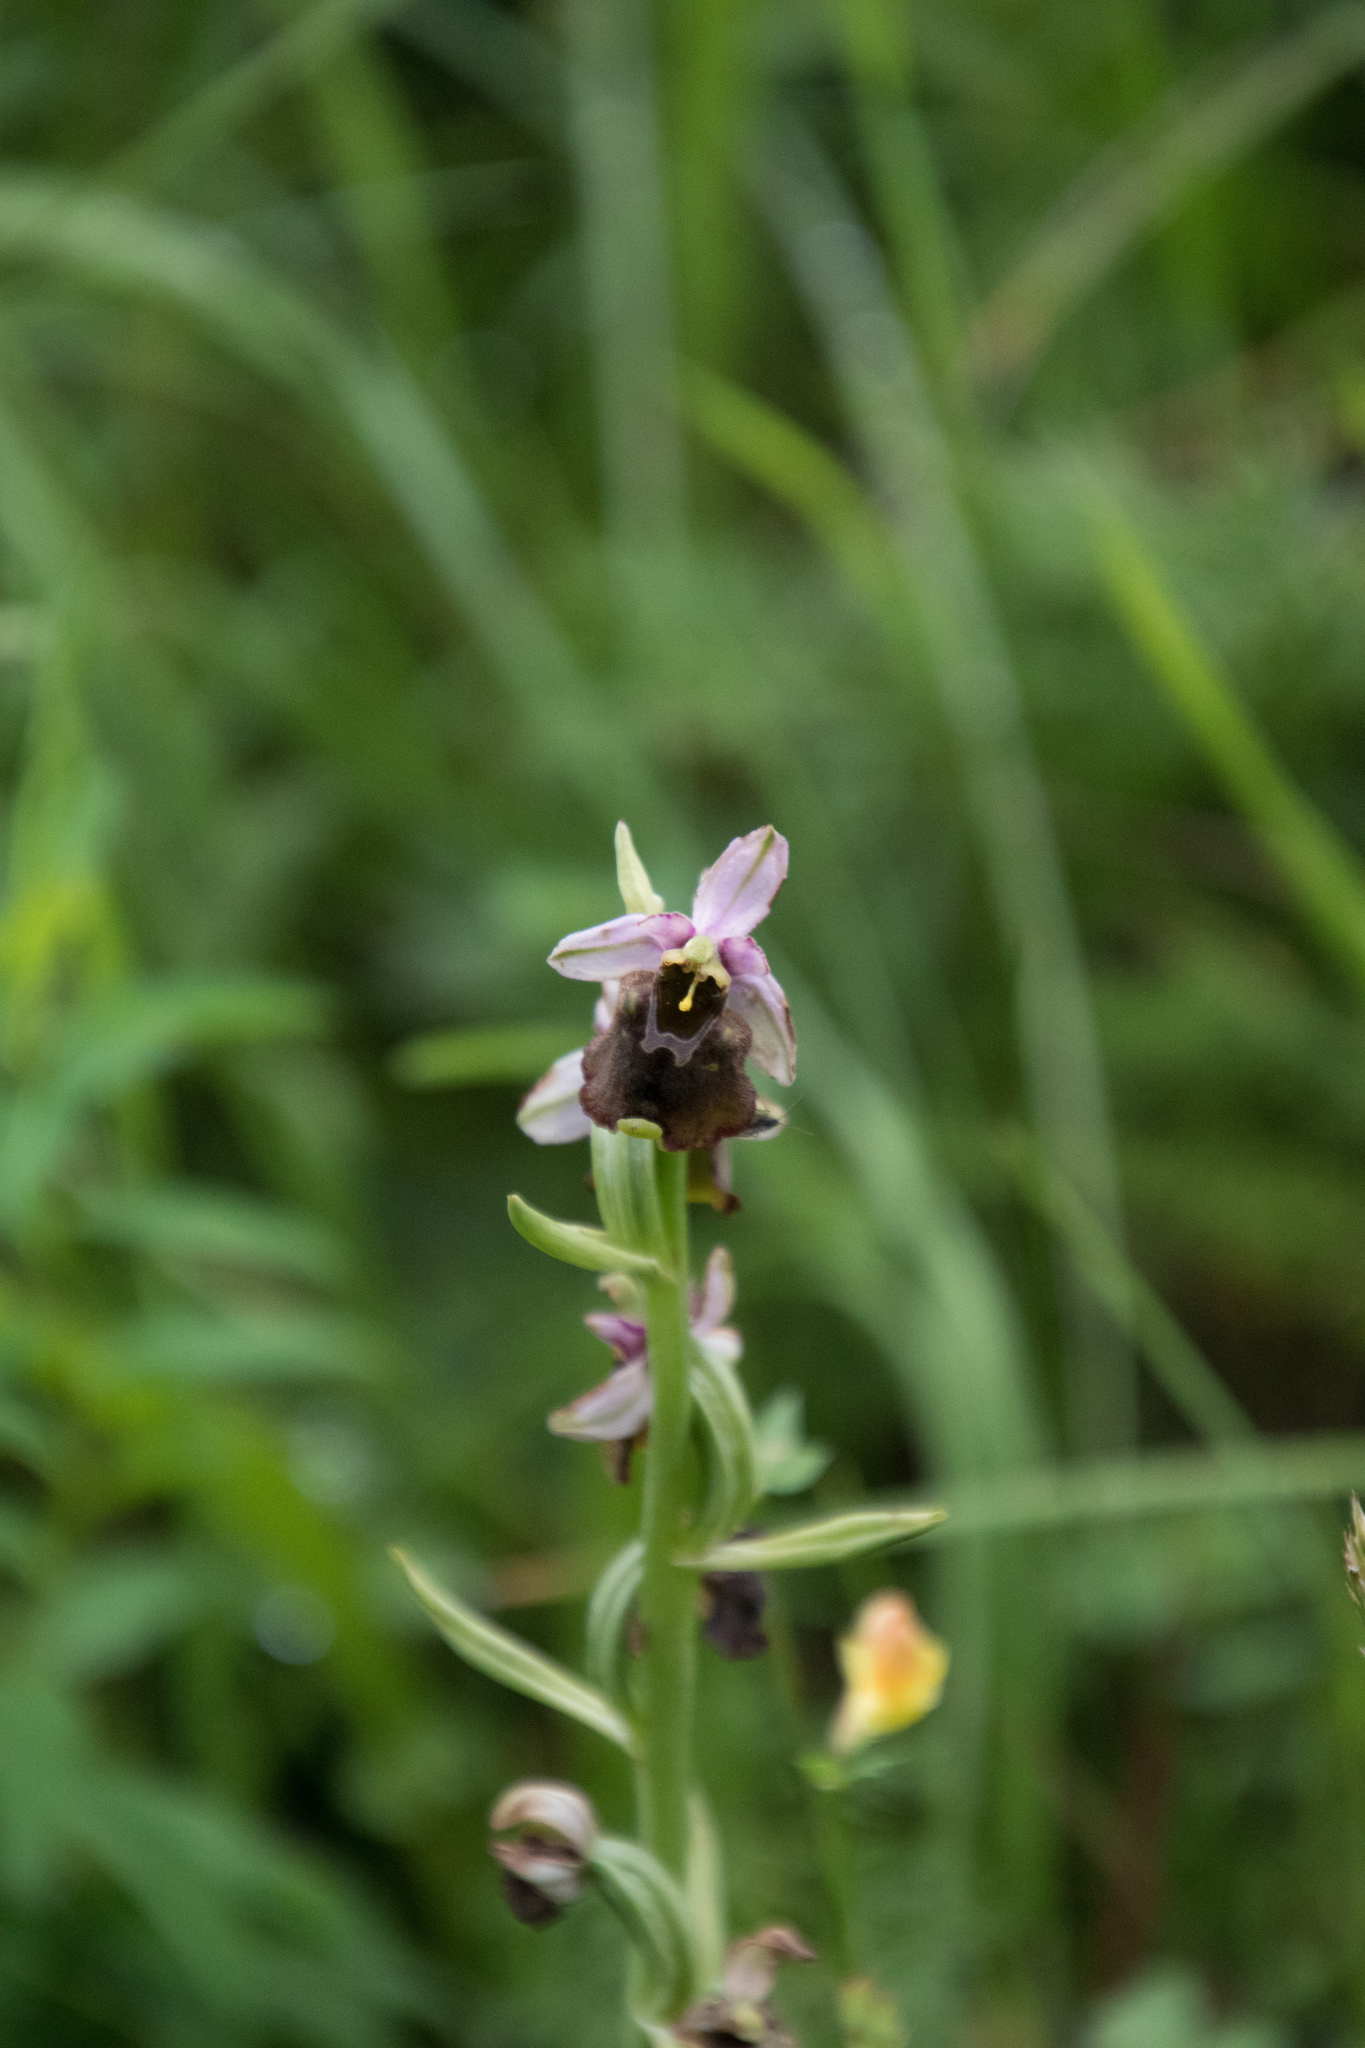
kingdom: Plantae
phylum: Tracheophyta
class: Liliopsida
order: Asparagales
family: Orchidaceae
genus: Ophrys
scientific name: Ophrys holosericea
